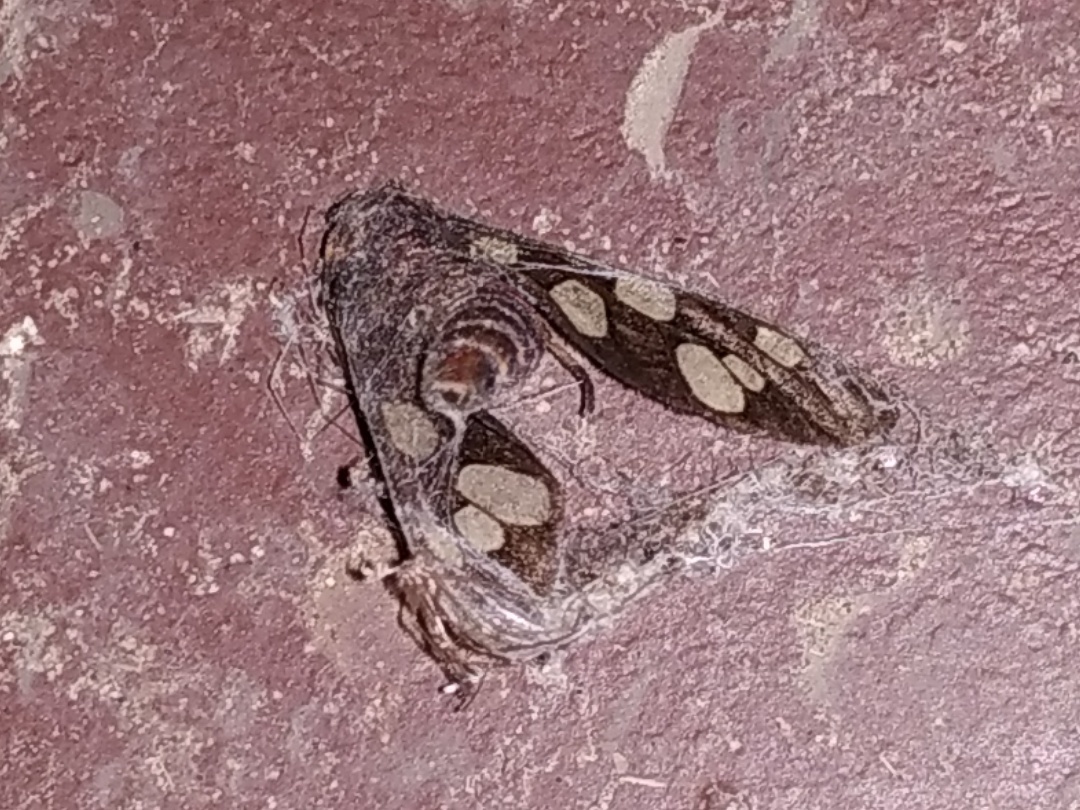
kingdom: Animalia
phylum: Arthropoda
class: Insecta
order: Lepidoptera
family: Erebidae
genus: Amata
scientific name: Amata passalis
